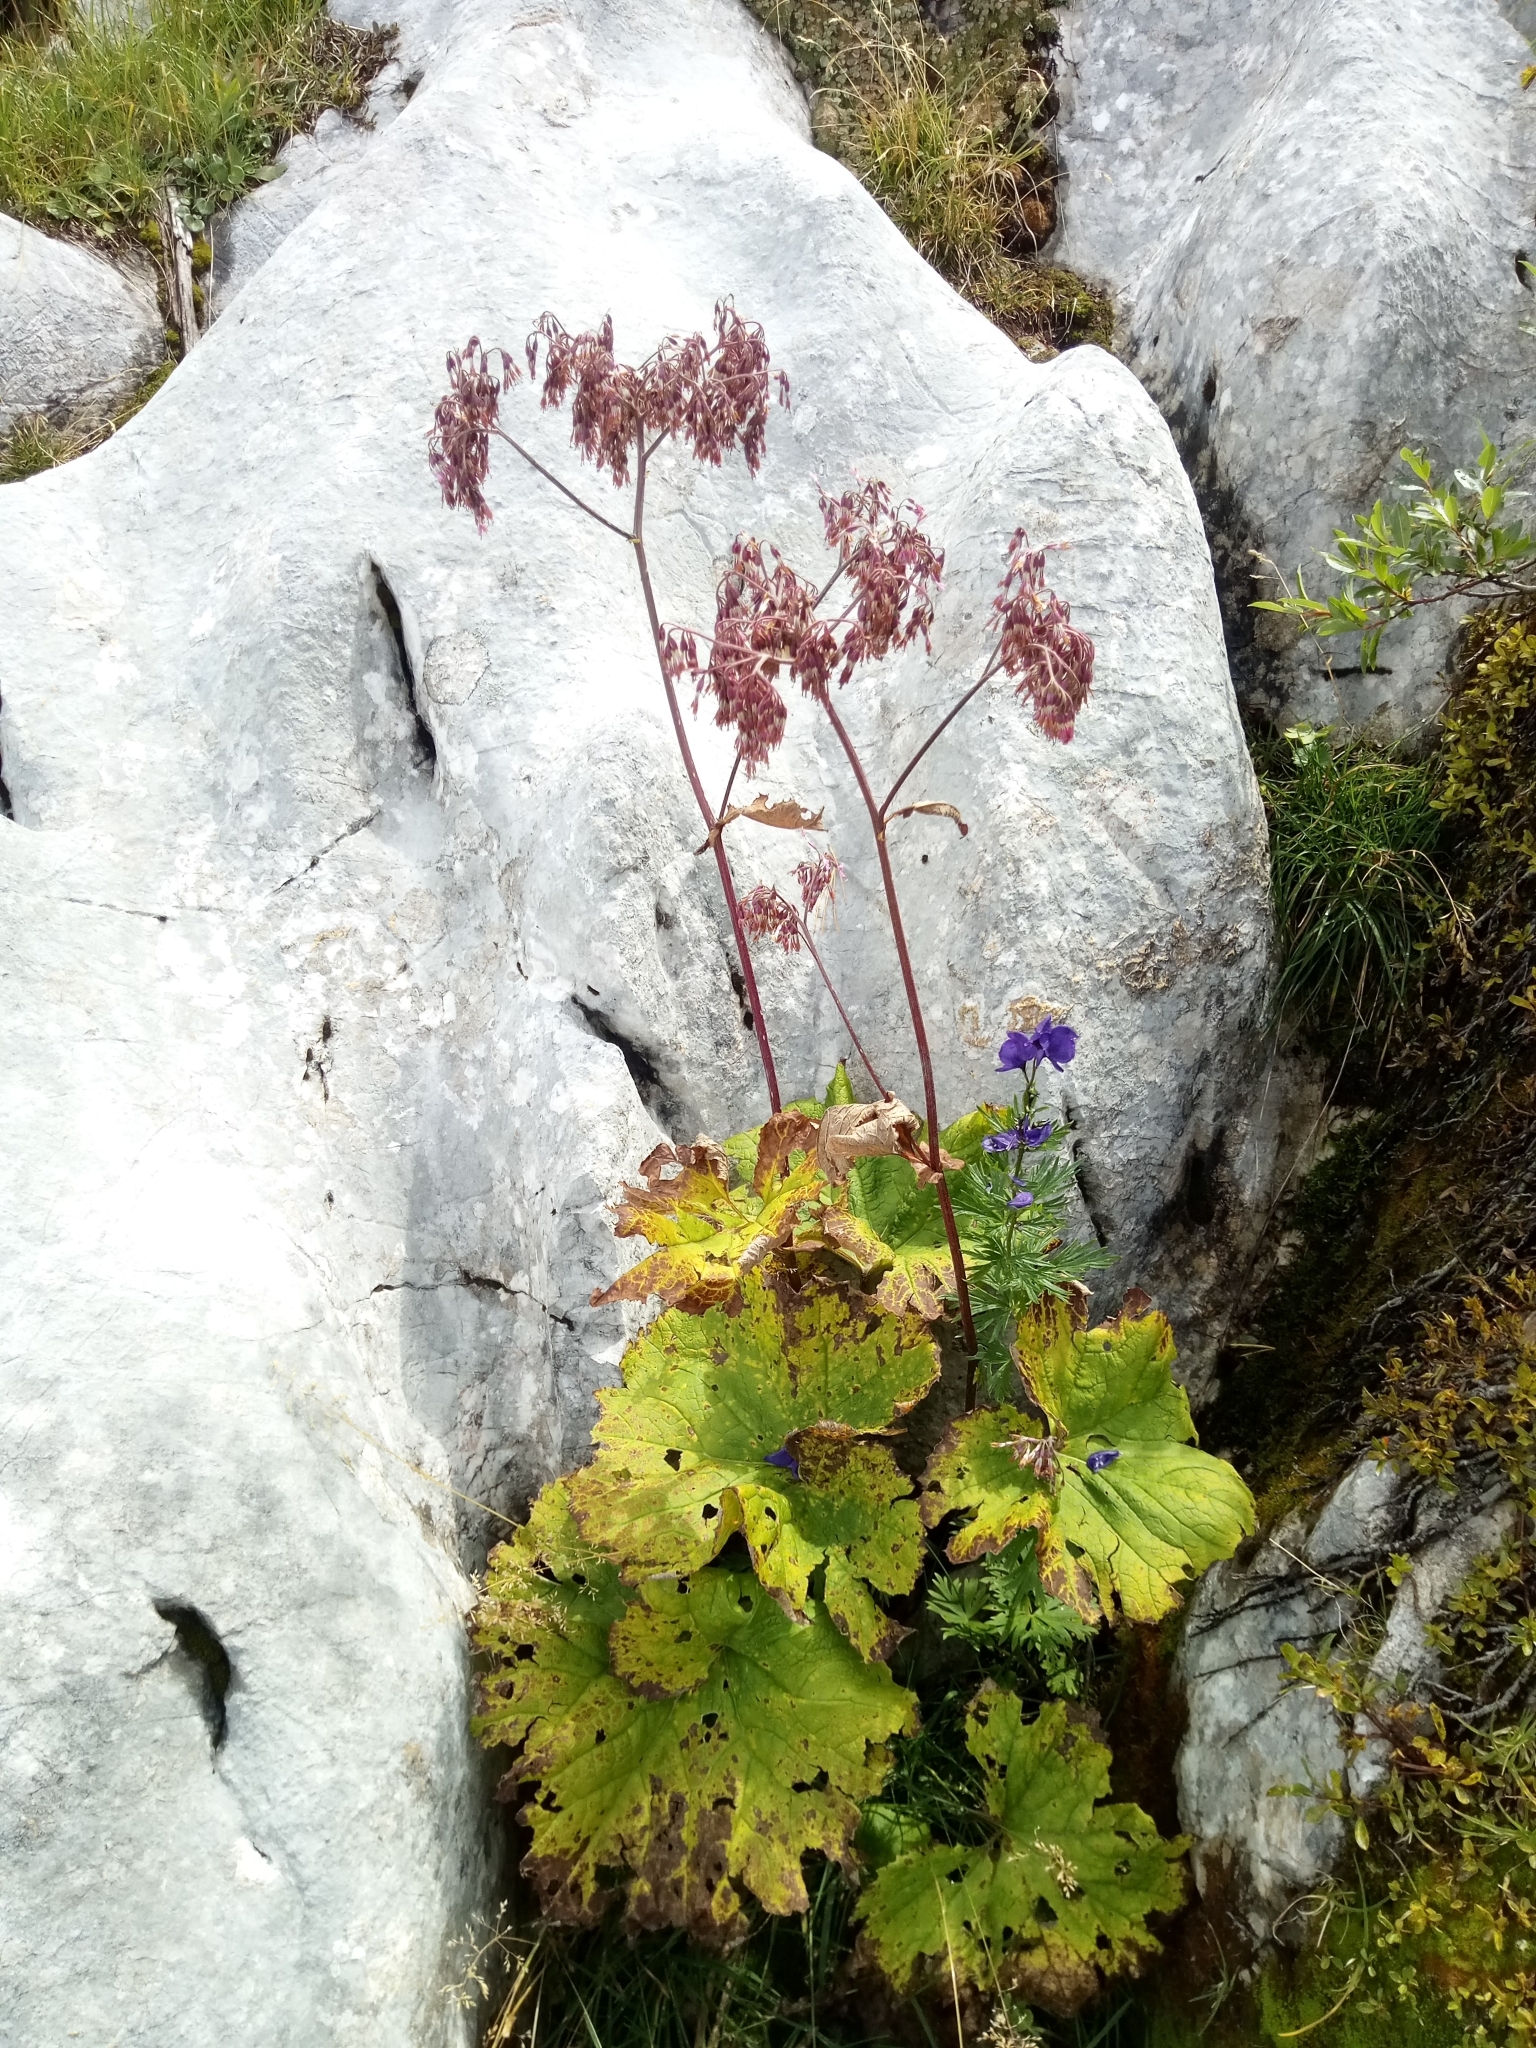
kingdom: Plantae
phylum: Tracheophyta
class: Magnoliopsida
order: Asterales
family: Asteraceae
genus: Adenostyles
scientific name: Adenostyles alliariae
